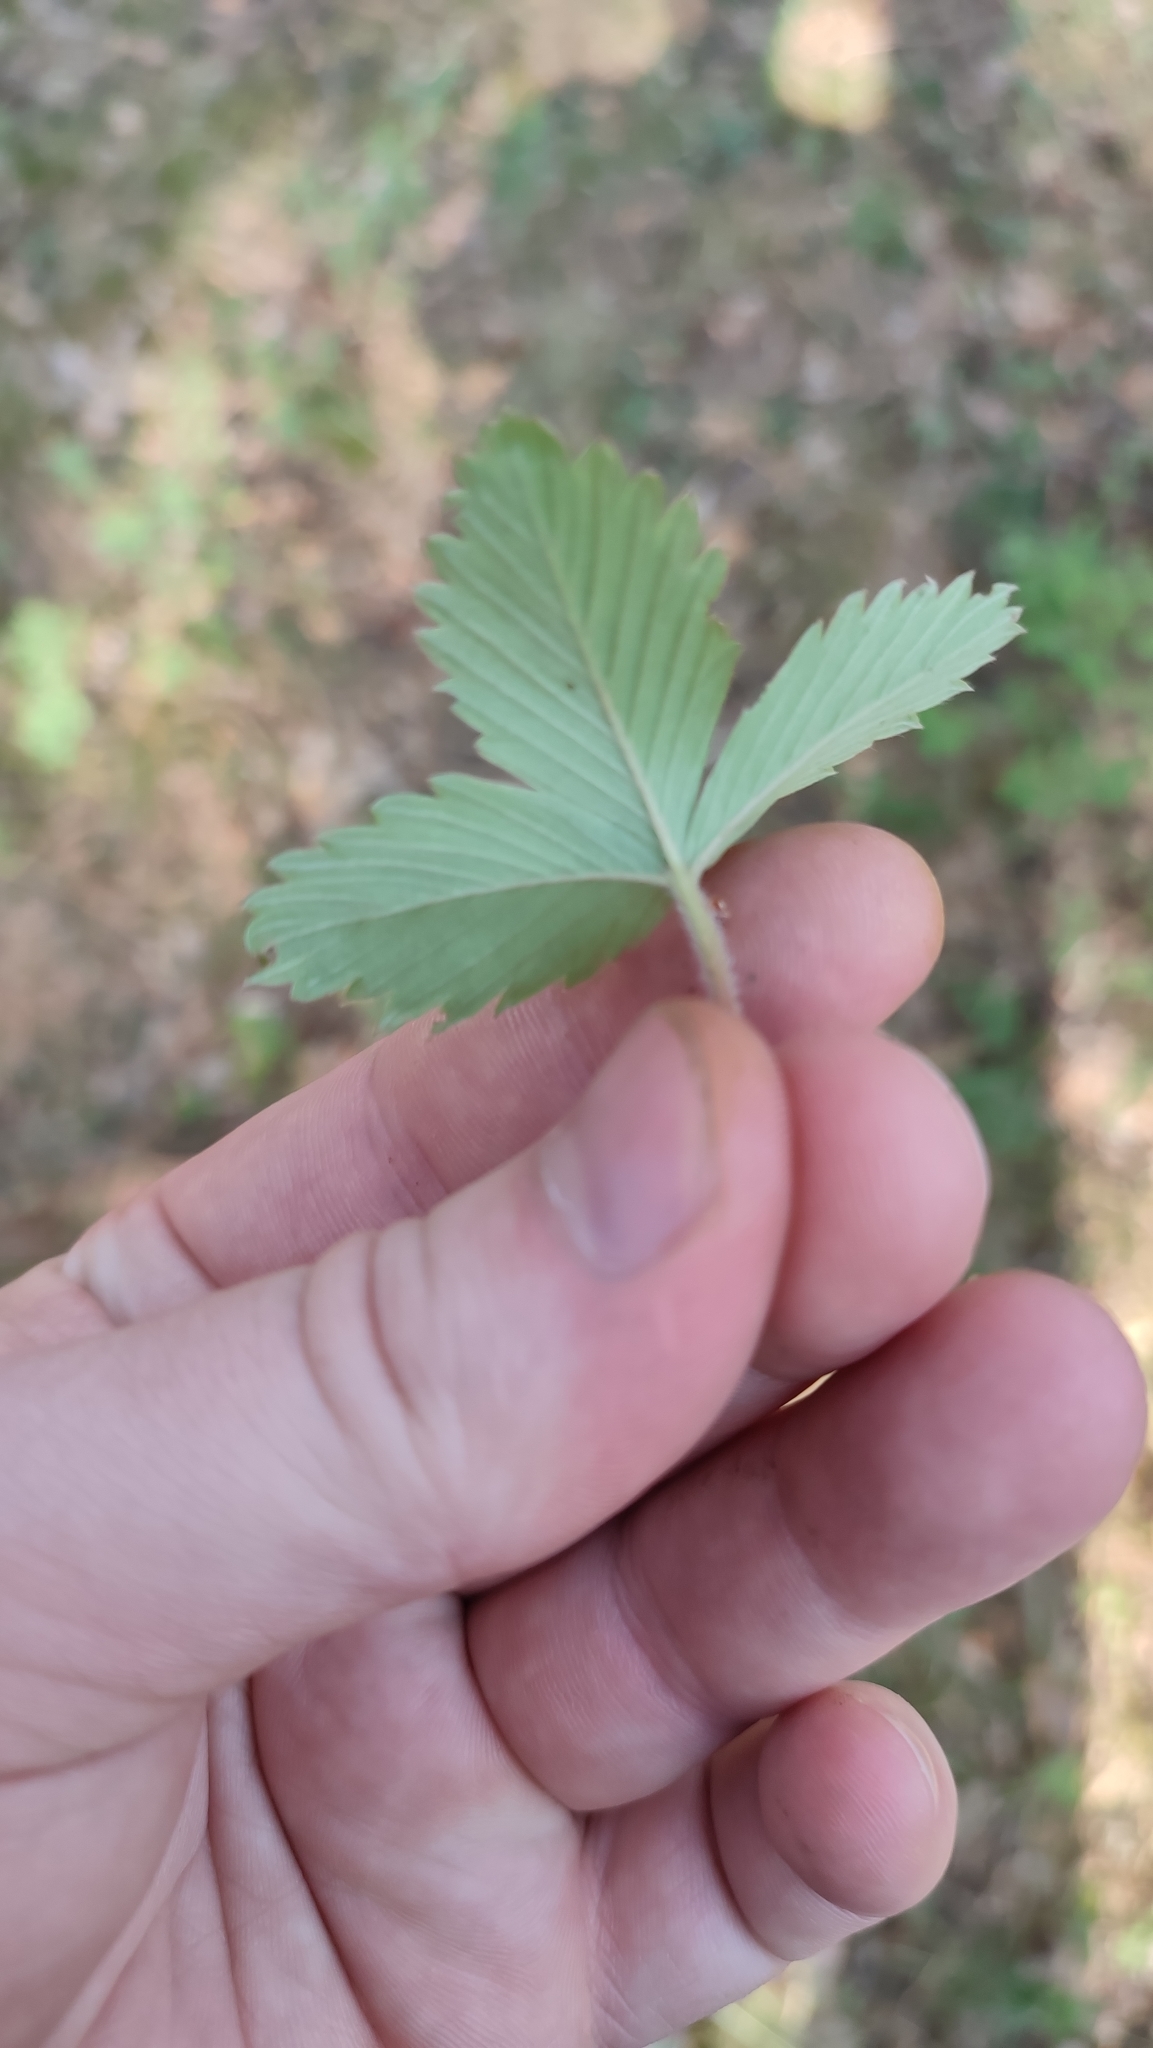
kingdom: Plantae
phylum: Tracheophyta
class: Magnoliopsida
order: Rosales
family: Rosaceae
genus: Fragaria
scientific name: Fragaria vesca
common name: Wild strawberry
